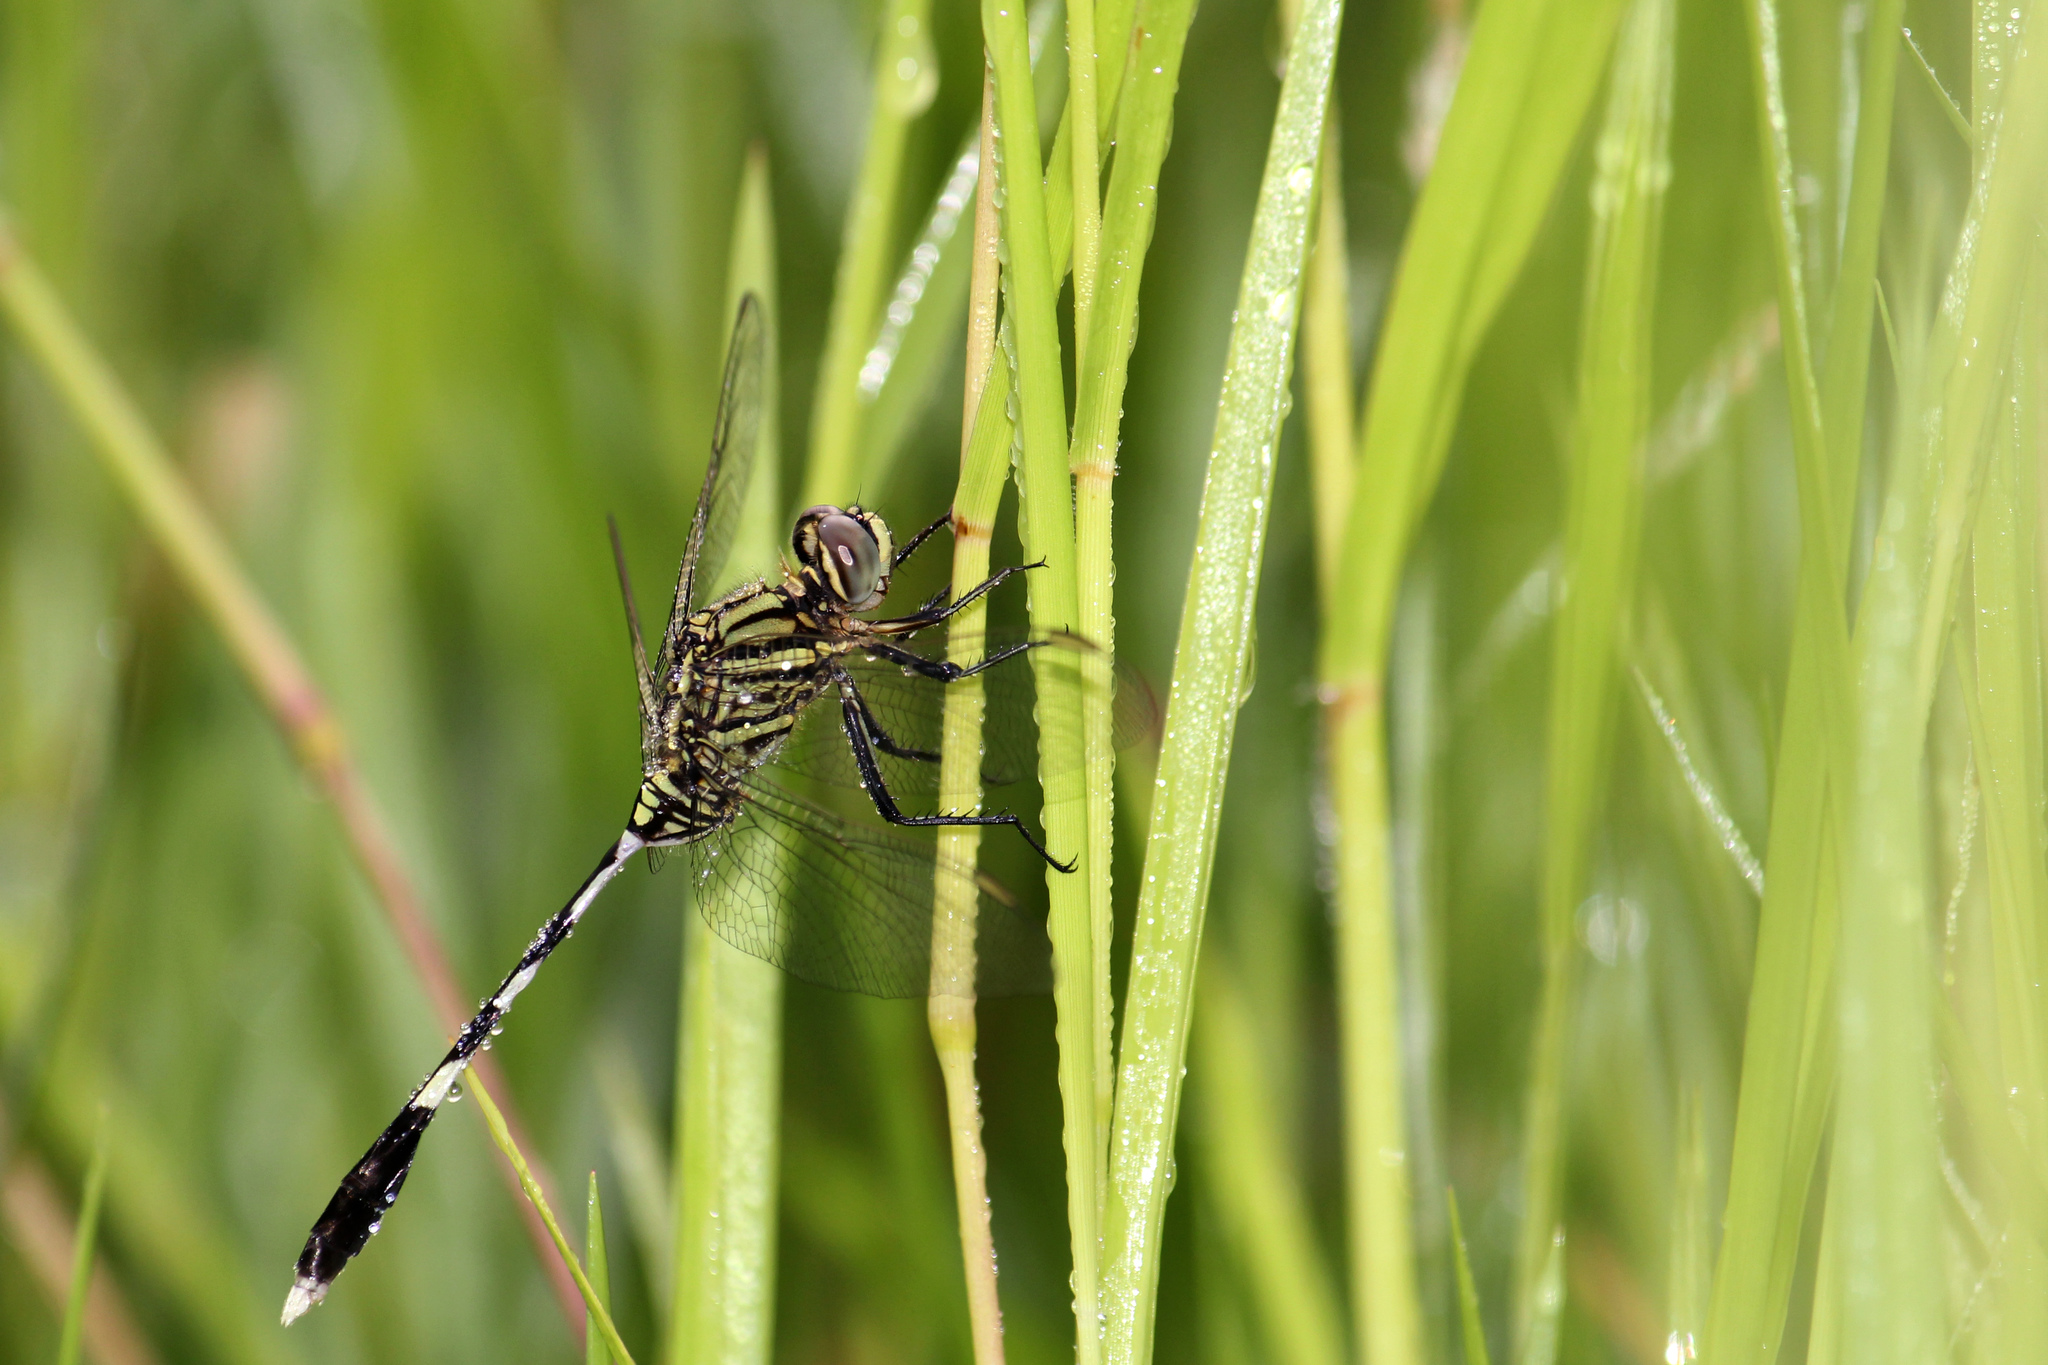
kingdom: Animalia
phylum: Arthropoda
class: Insecta
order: Odonata
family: Libellulidae
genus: Orthetrum
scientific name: Orthetrum sabina
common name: Slender skimmer
